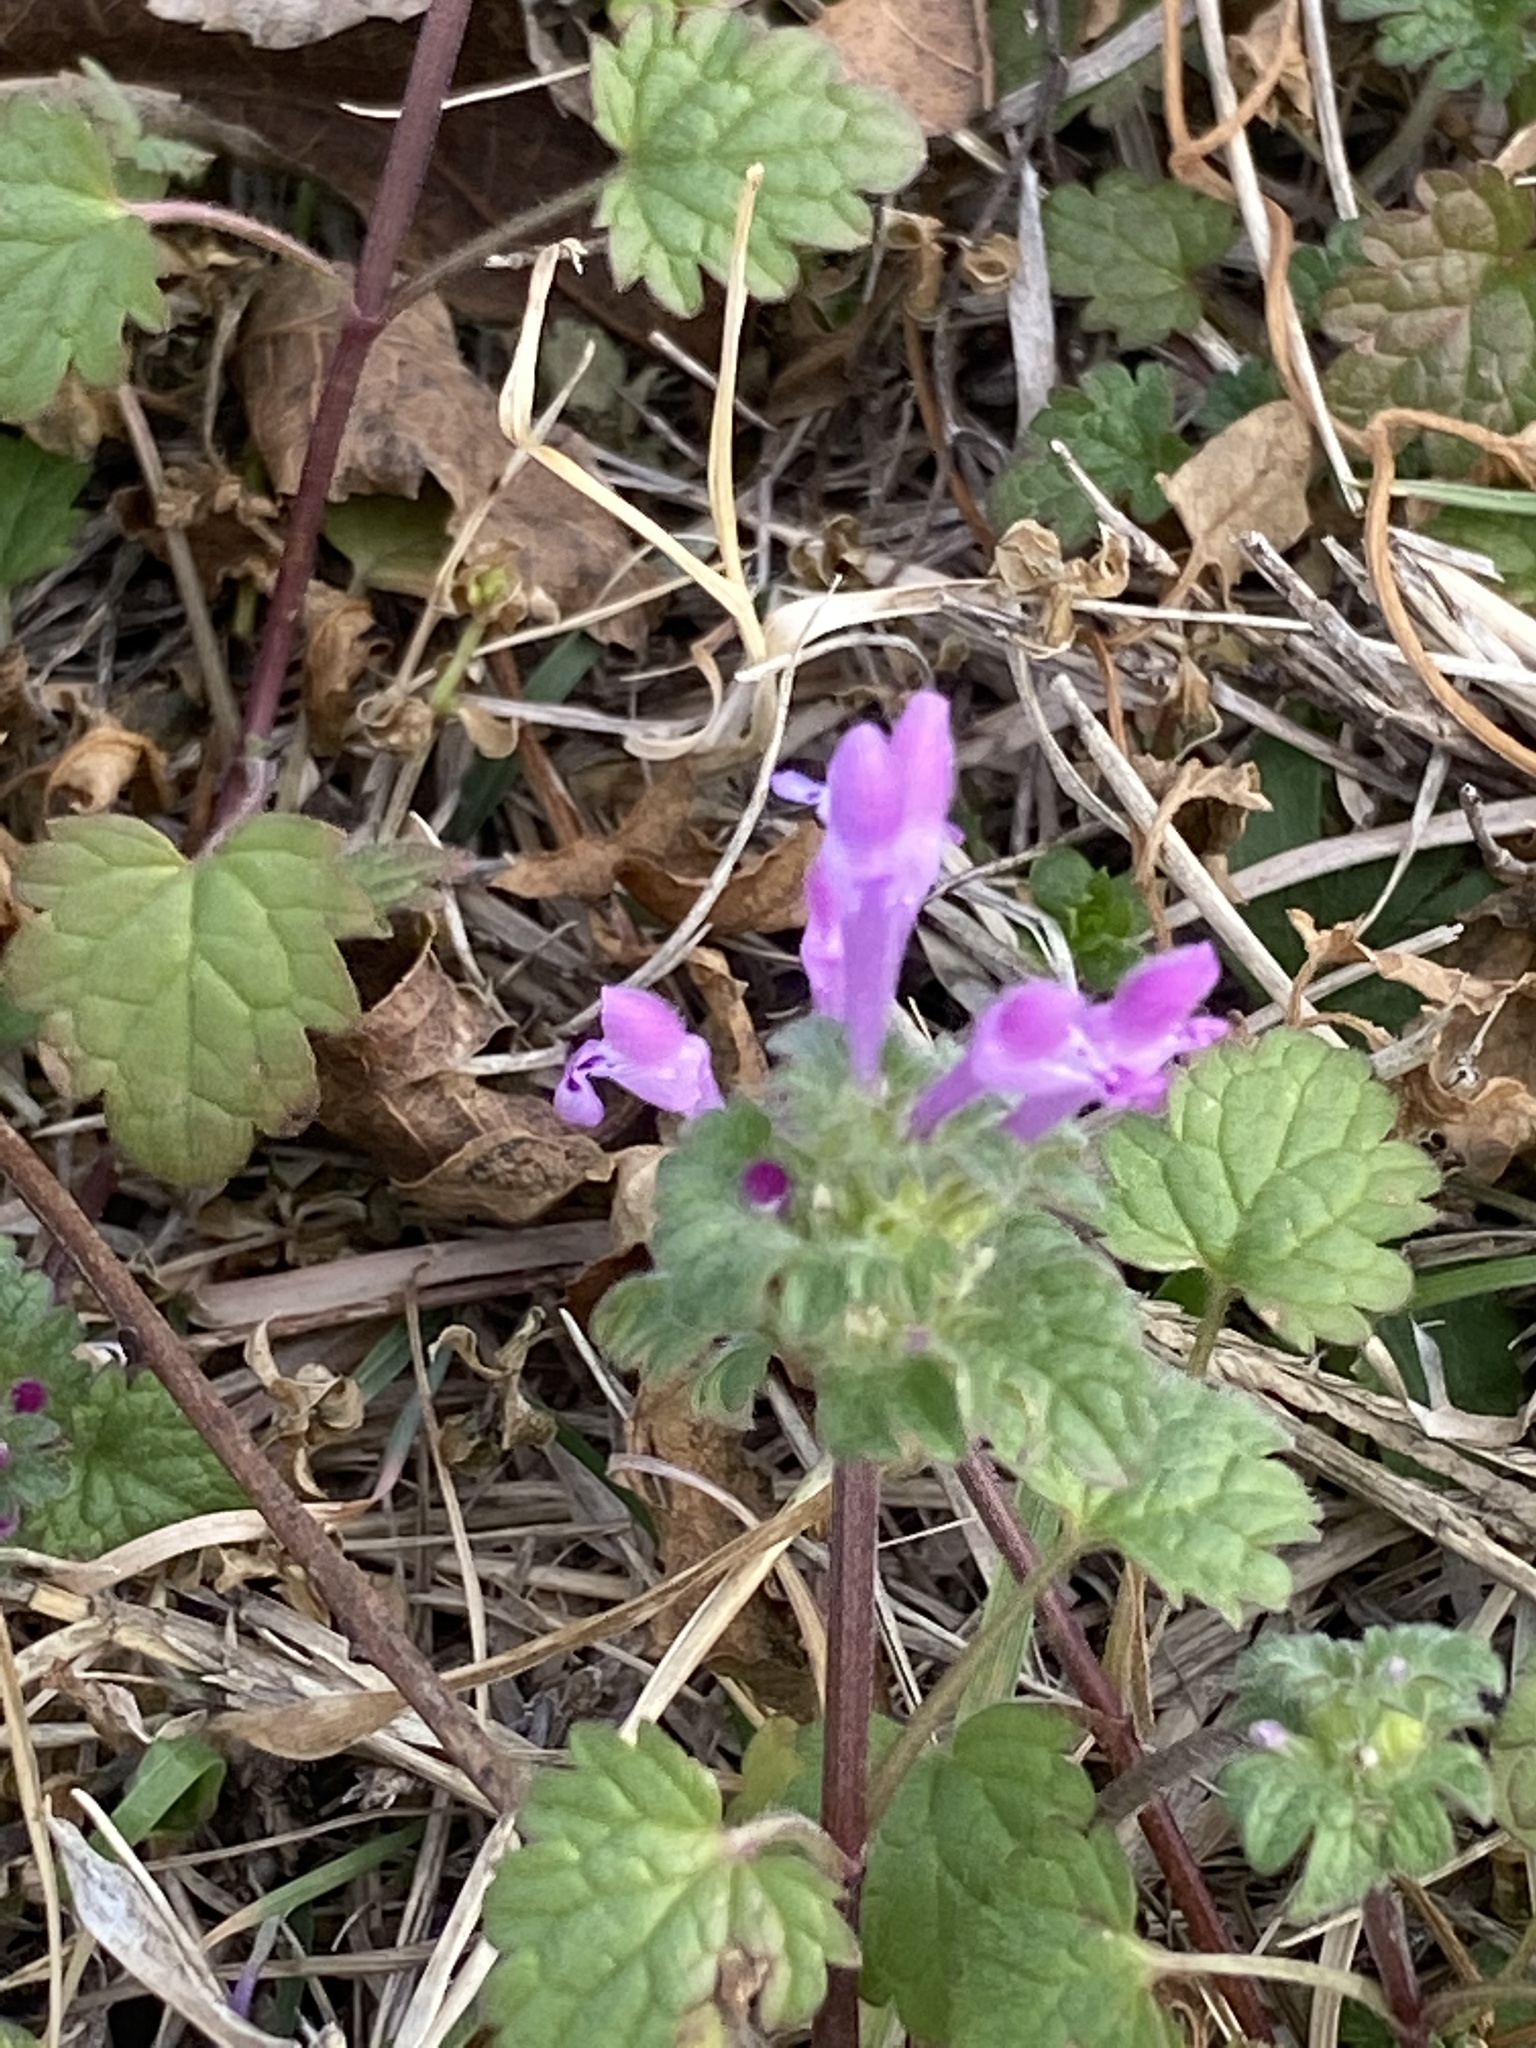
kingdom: Plantae
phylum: Tracheophyta
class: Magnoliopsida
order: Lamiales
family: Lamiaceae
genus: Lamium
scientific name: Lamium amplexicaule
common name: Henbit dead-nettle
